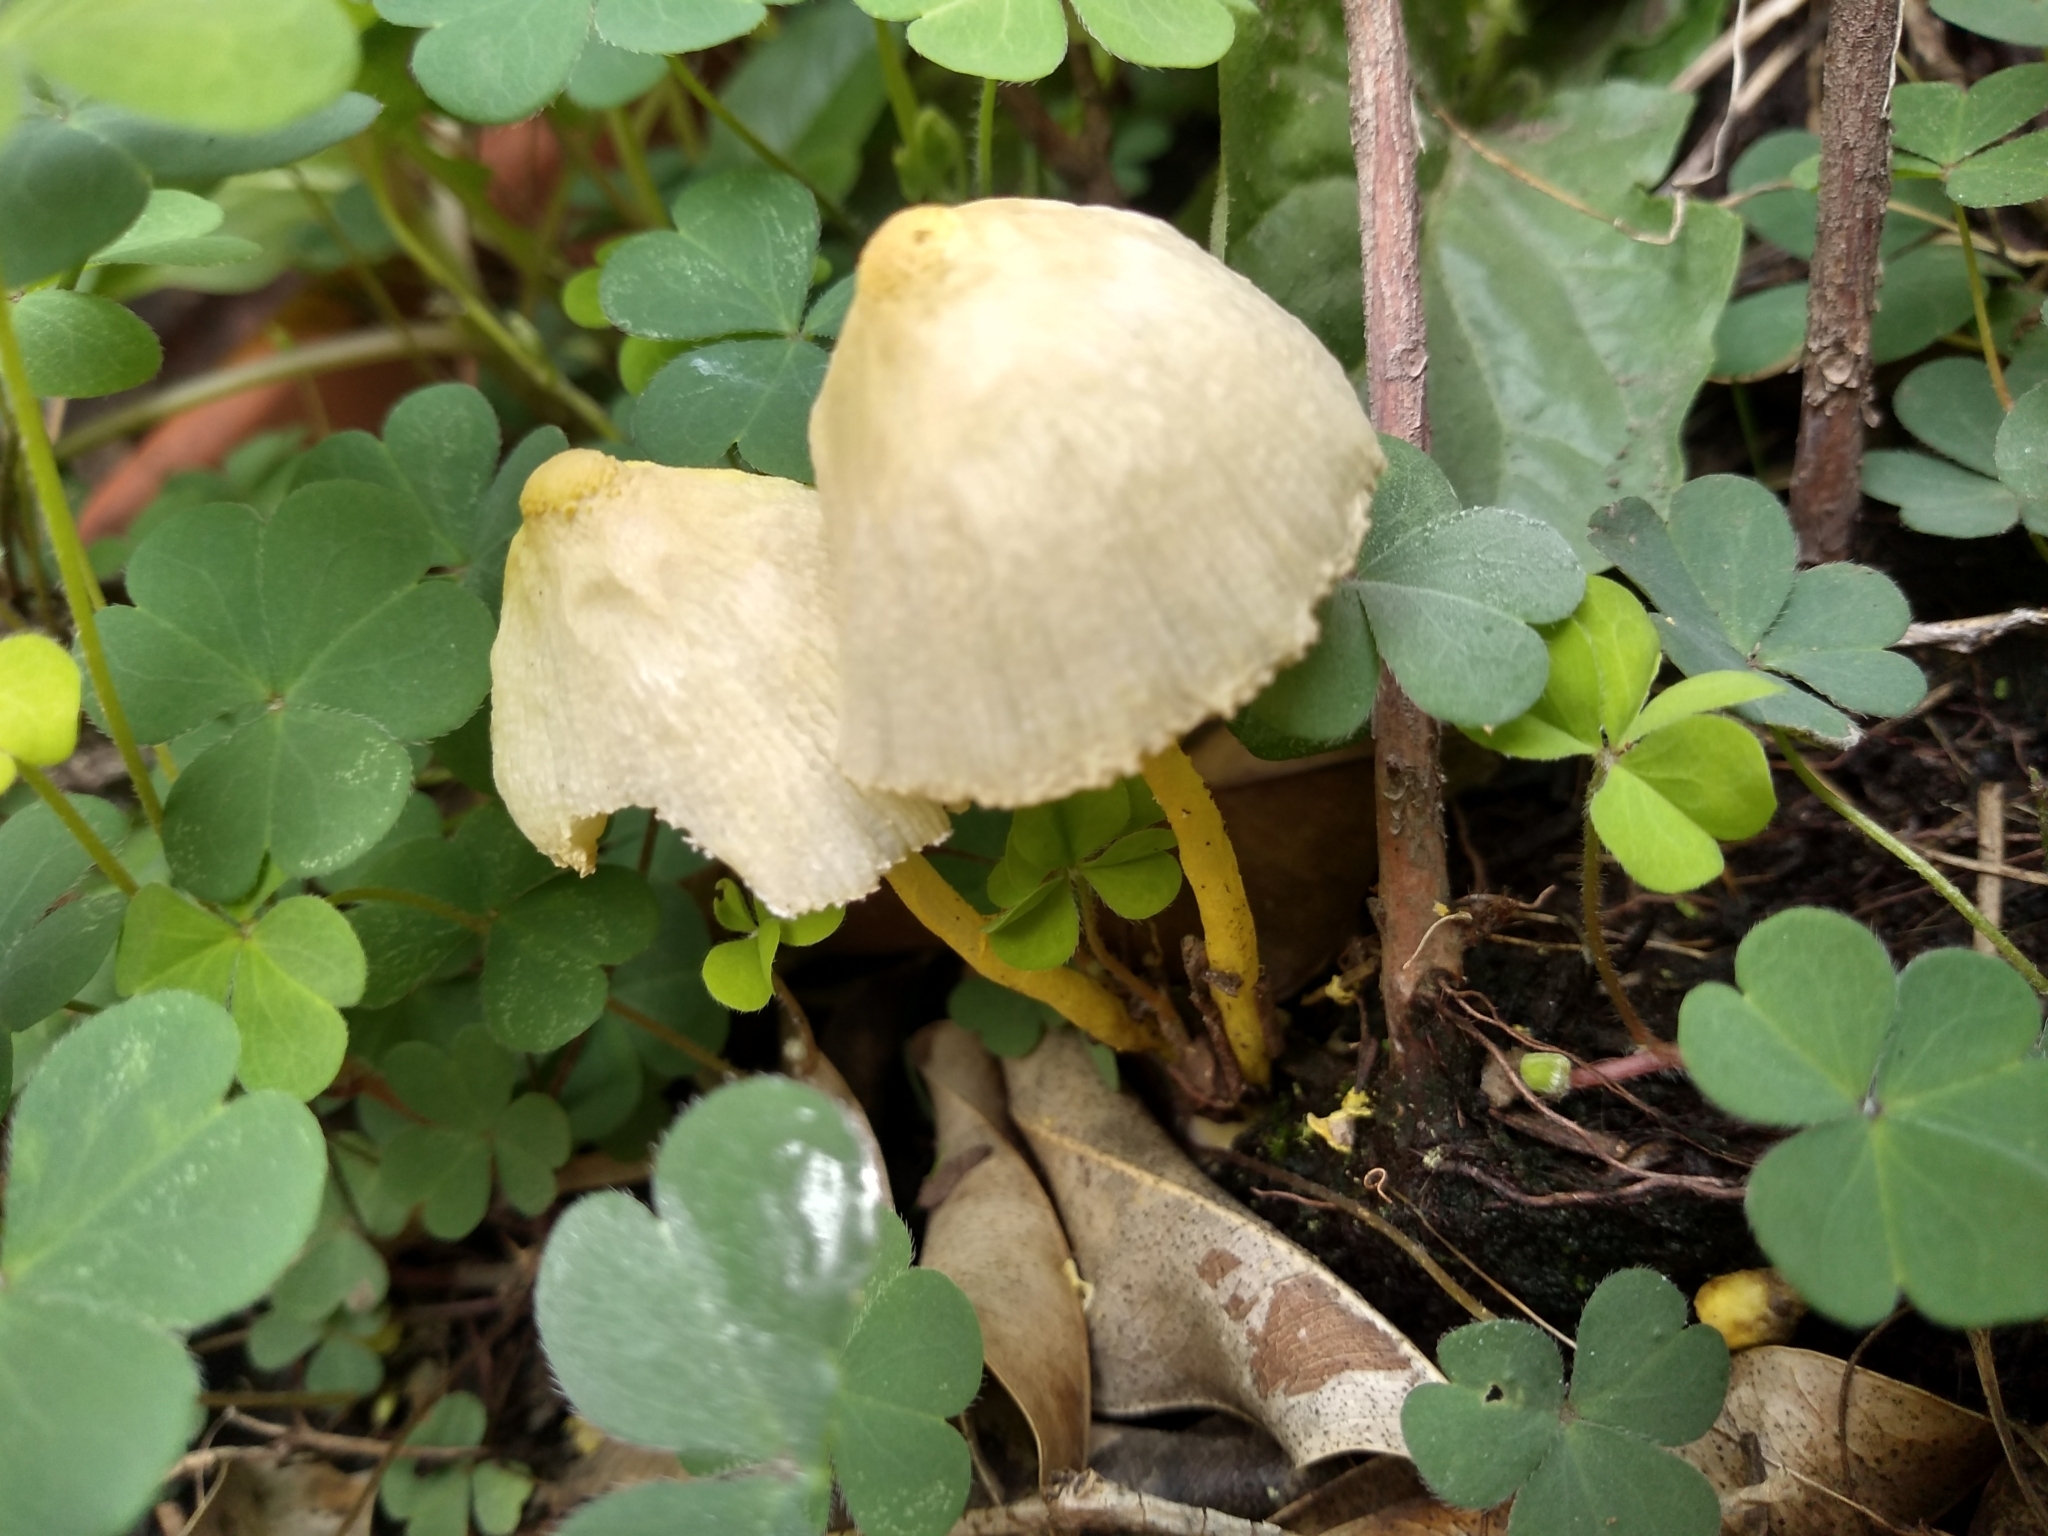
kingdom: Fungi
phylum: Basidiomycota
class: Agaricomycetes
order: Agaricales
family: Agaricaceae
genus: Leucocoprinus
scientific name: Leucocoprinus birnbaumii
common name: Plantpot dapperling
